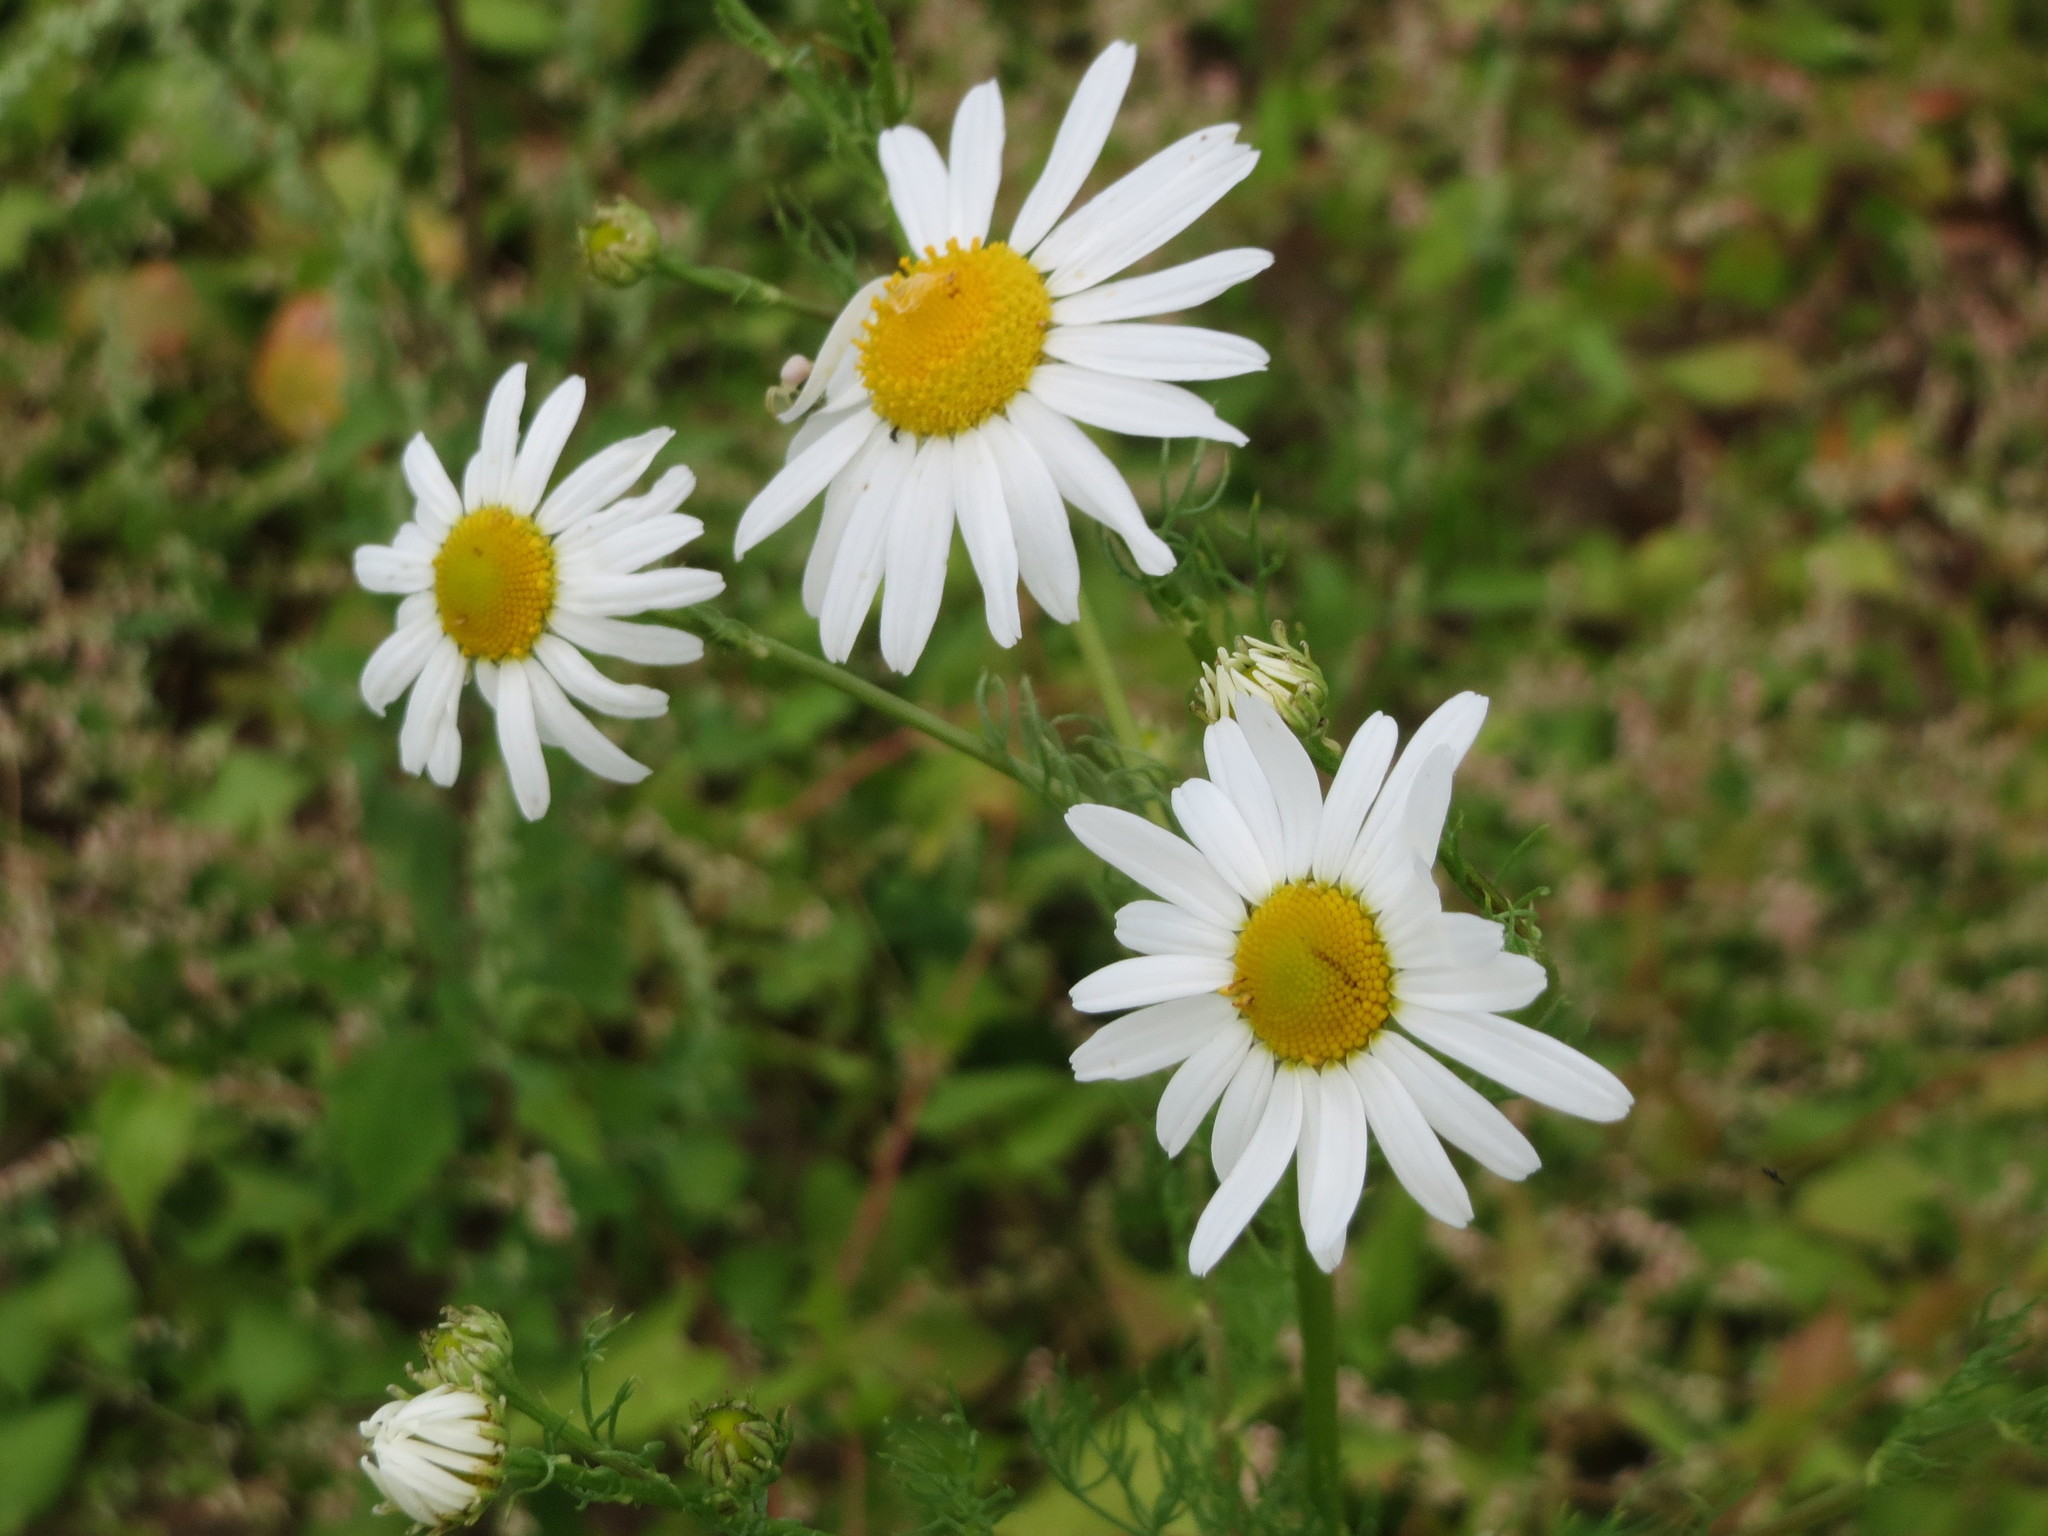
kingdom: Plantae
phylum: Tracheophyta
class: Magnoliopsida
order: Asterales
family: Asteraceae
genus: Tripleurospermum
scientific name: Tripleurospermum inodorum
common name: Scentless mayweed
